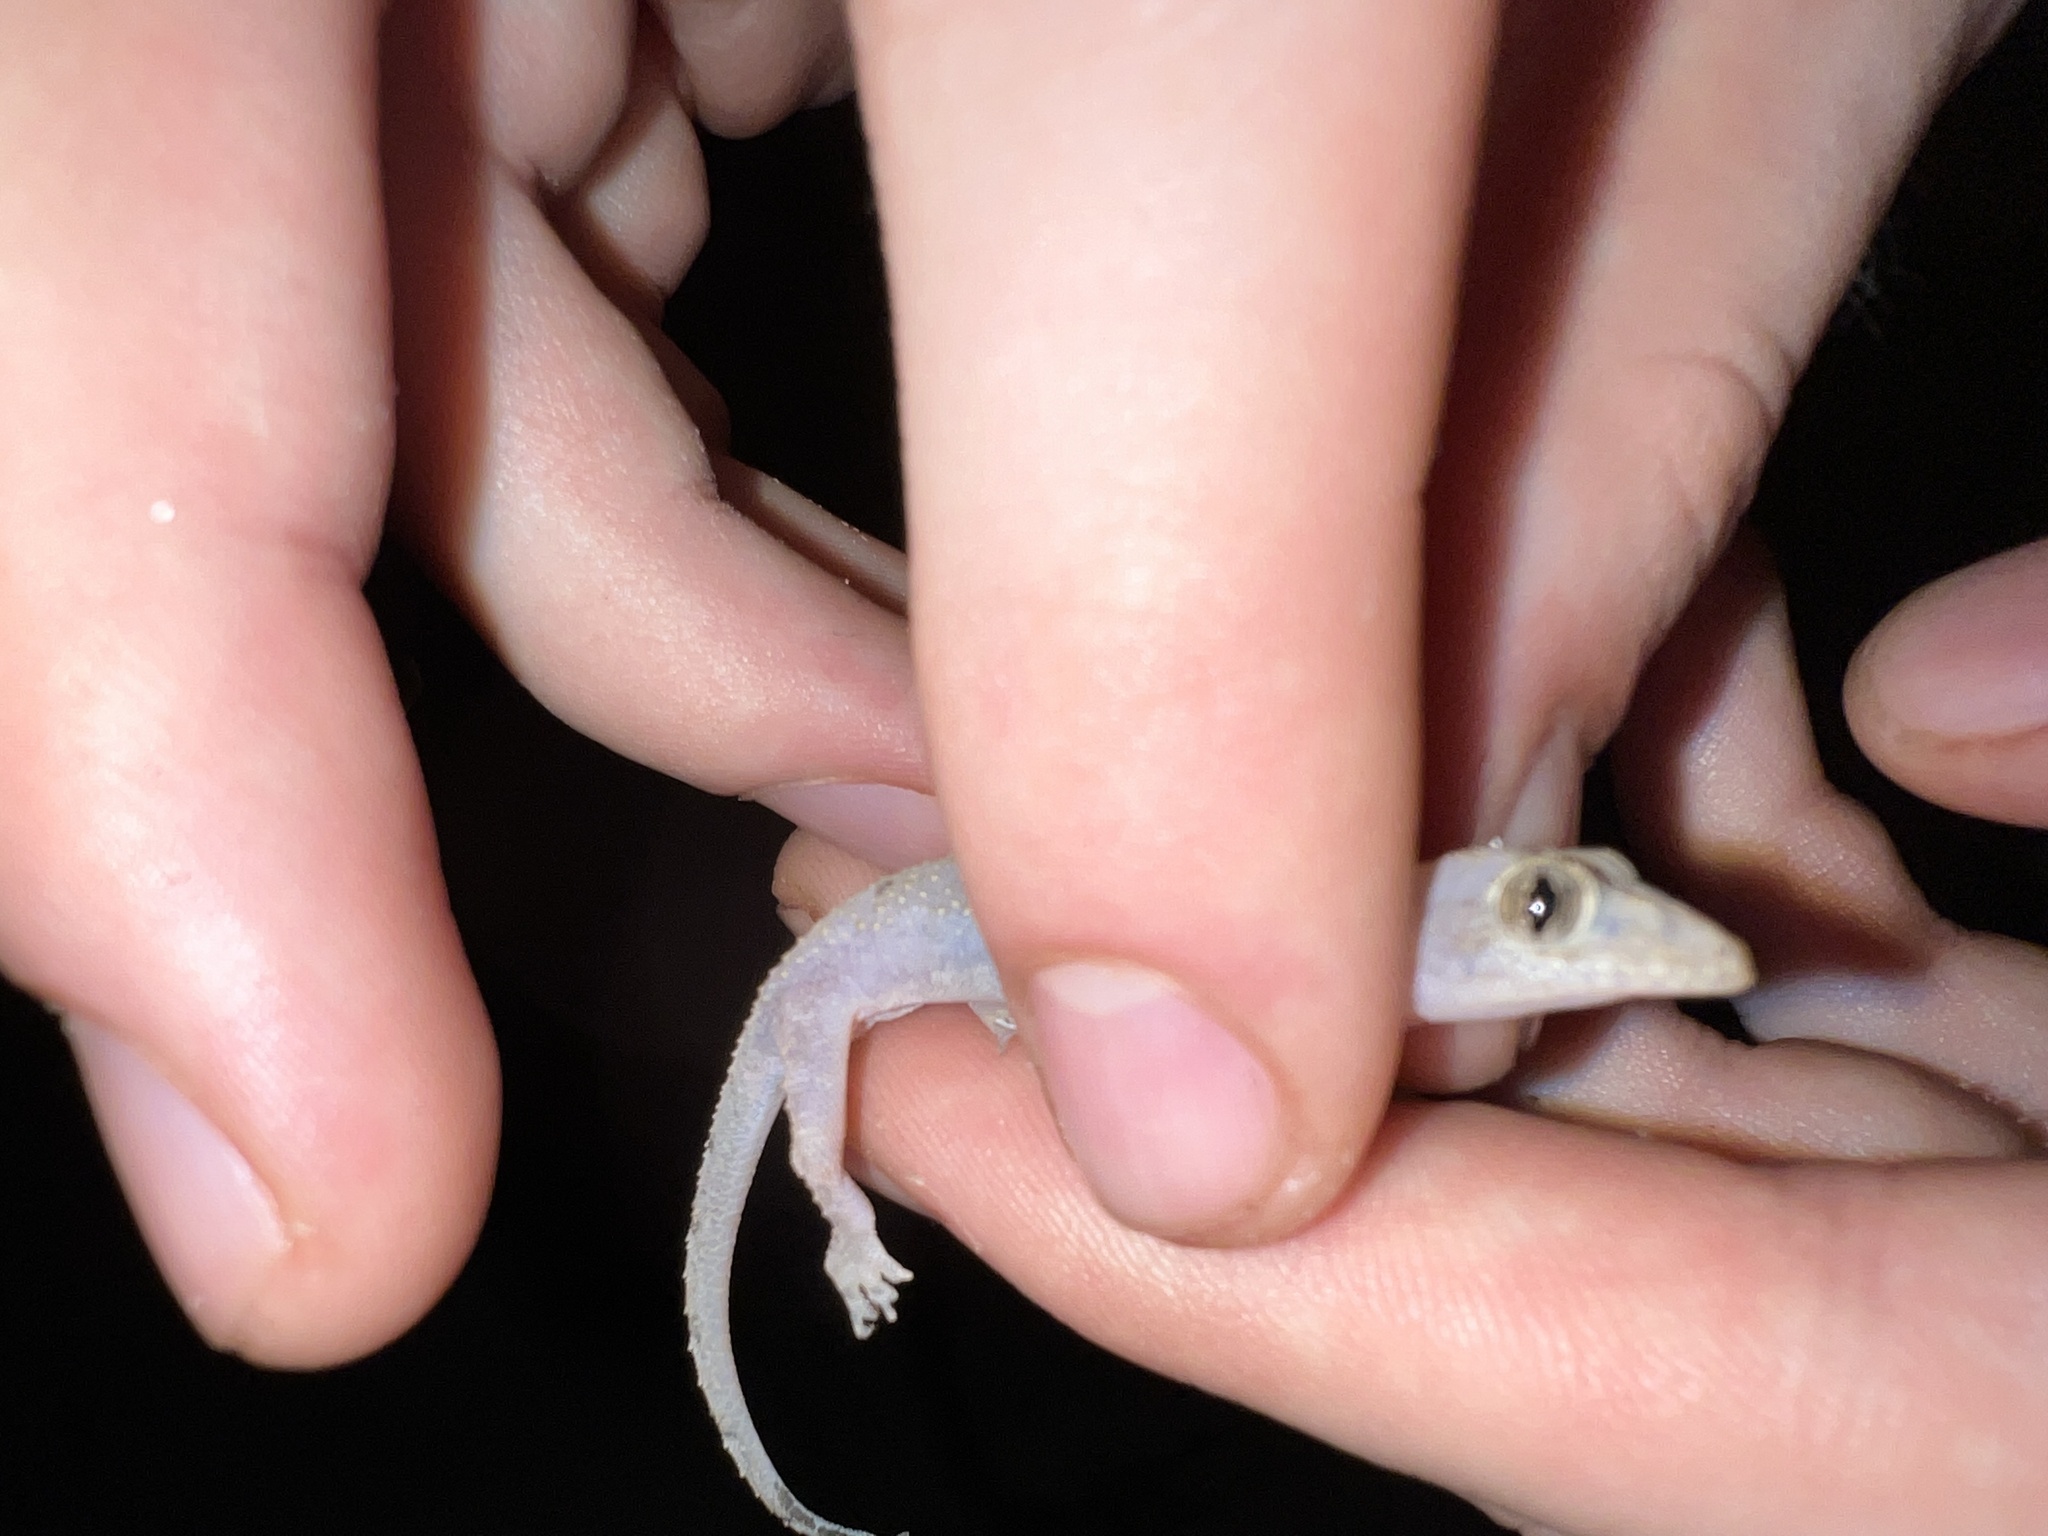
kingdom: Animalia
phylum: Chordata
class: Squamata
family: Gekkonidae
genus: Hemidactylus
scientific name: Hemidactylus mabouia
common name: House gecko
